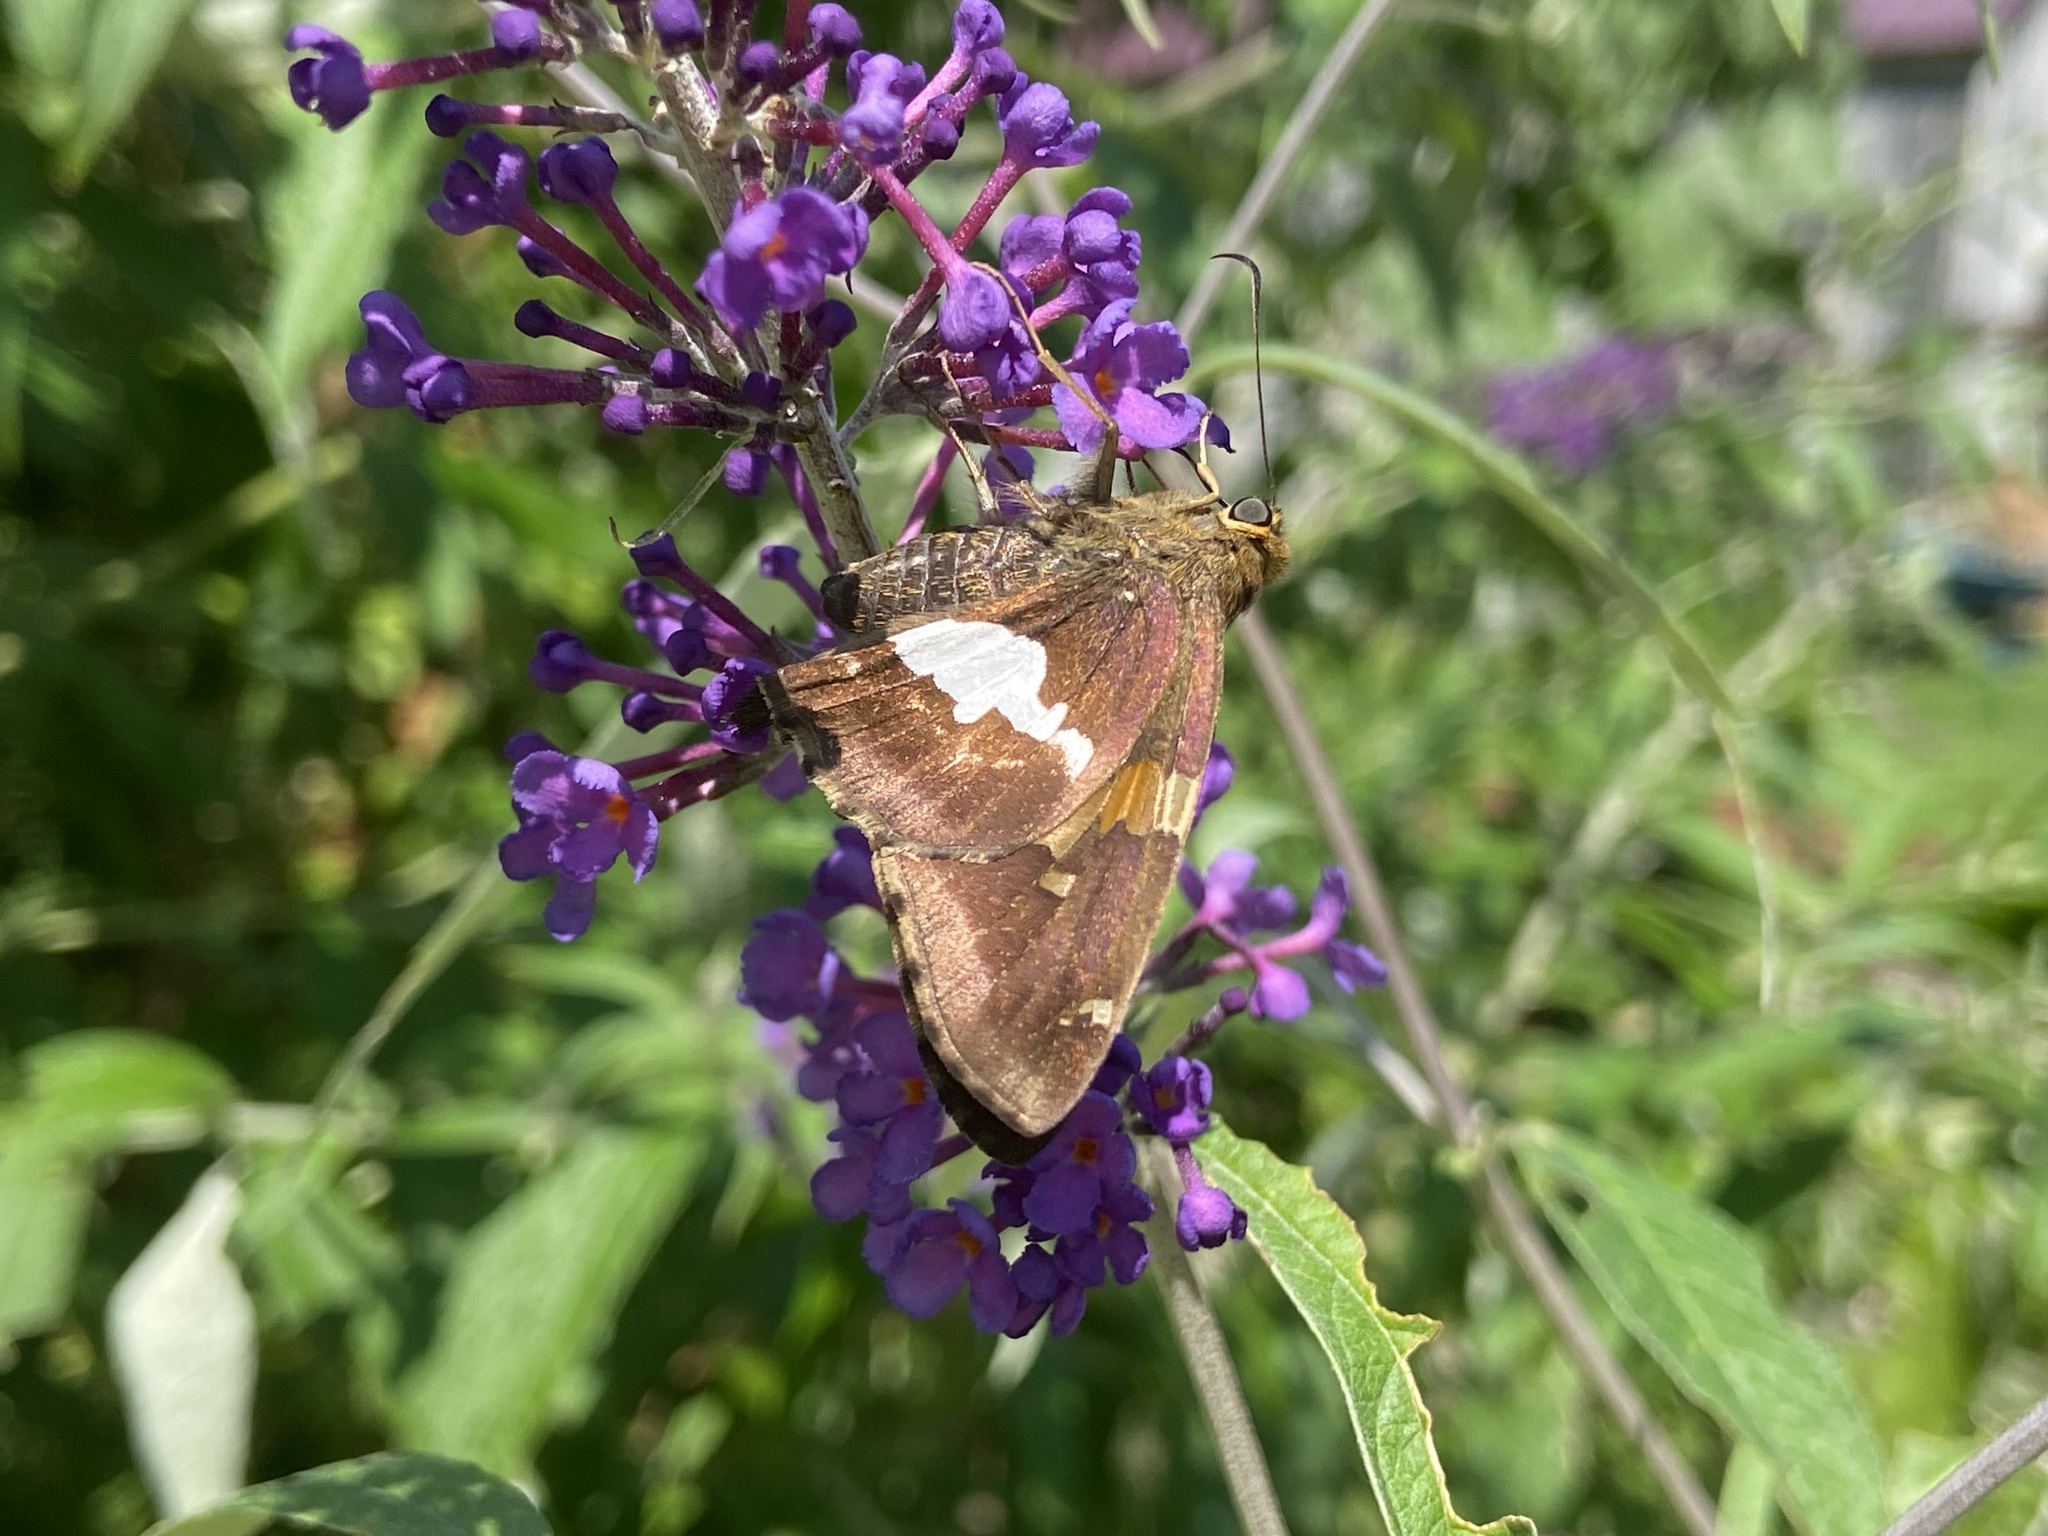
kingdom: Animalia
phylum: Arthropoda
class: Insecta
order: Lepidoptera
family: Hesperiidae
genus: Epargyreus
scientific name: Epargyreus clarus
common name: Silver-spotted skipper
